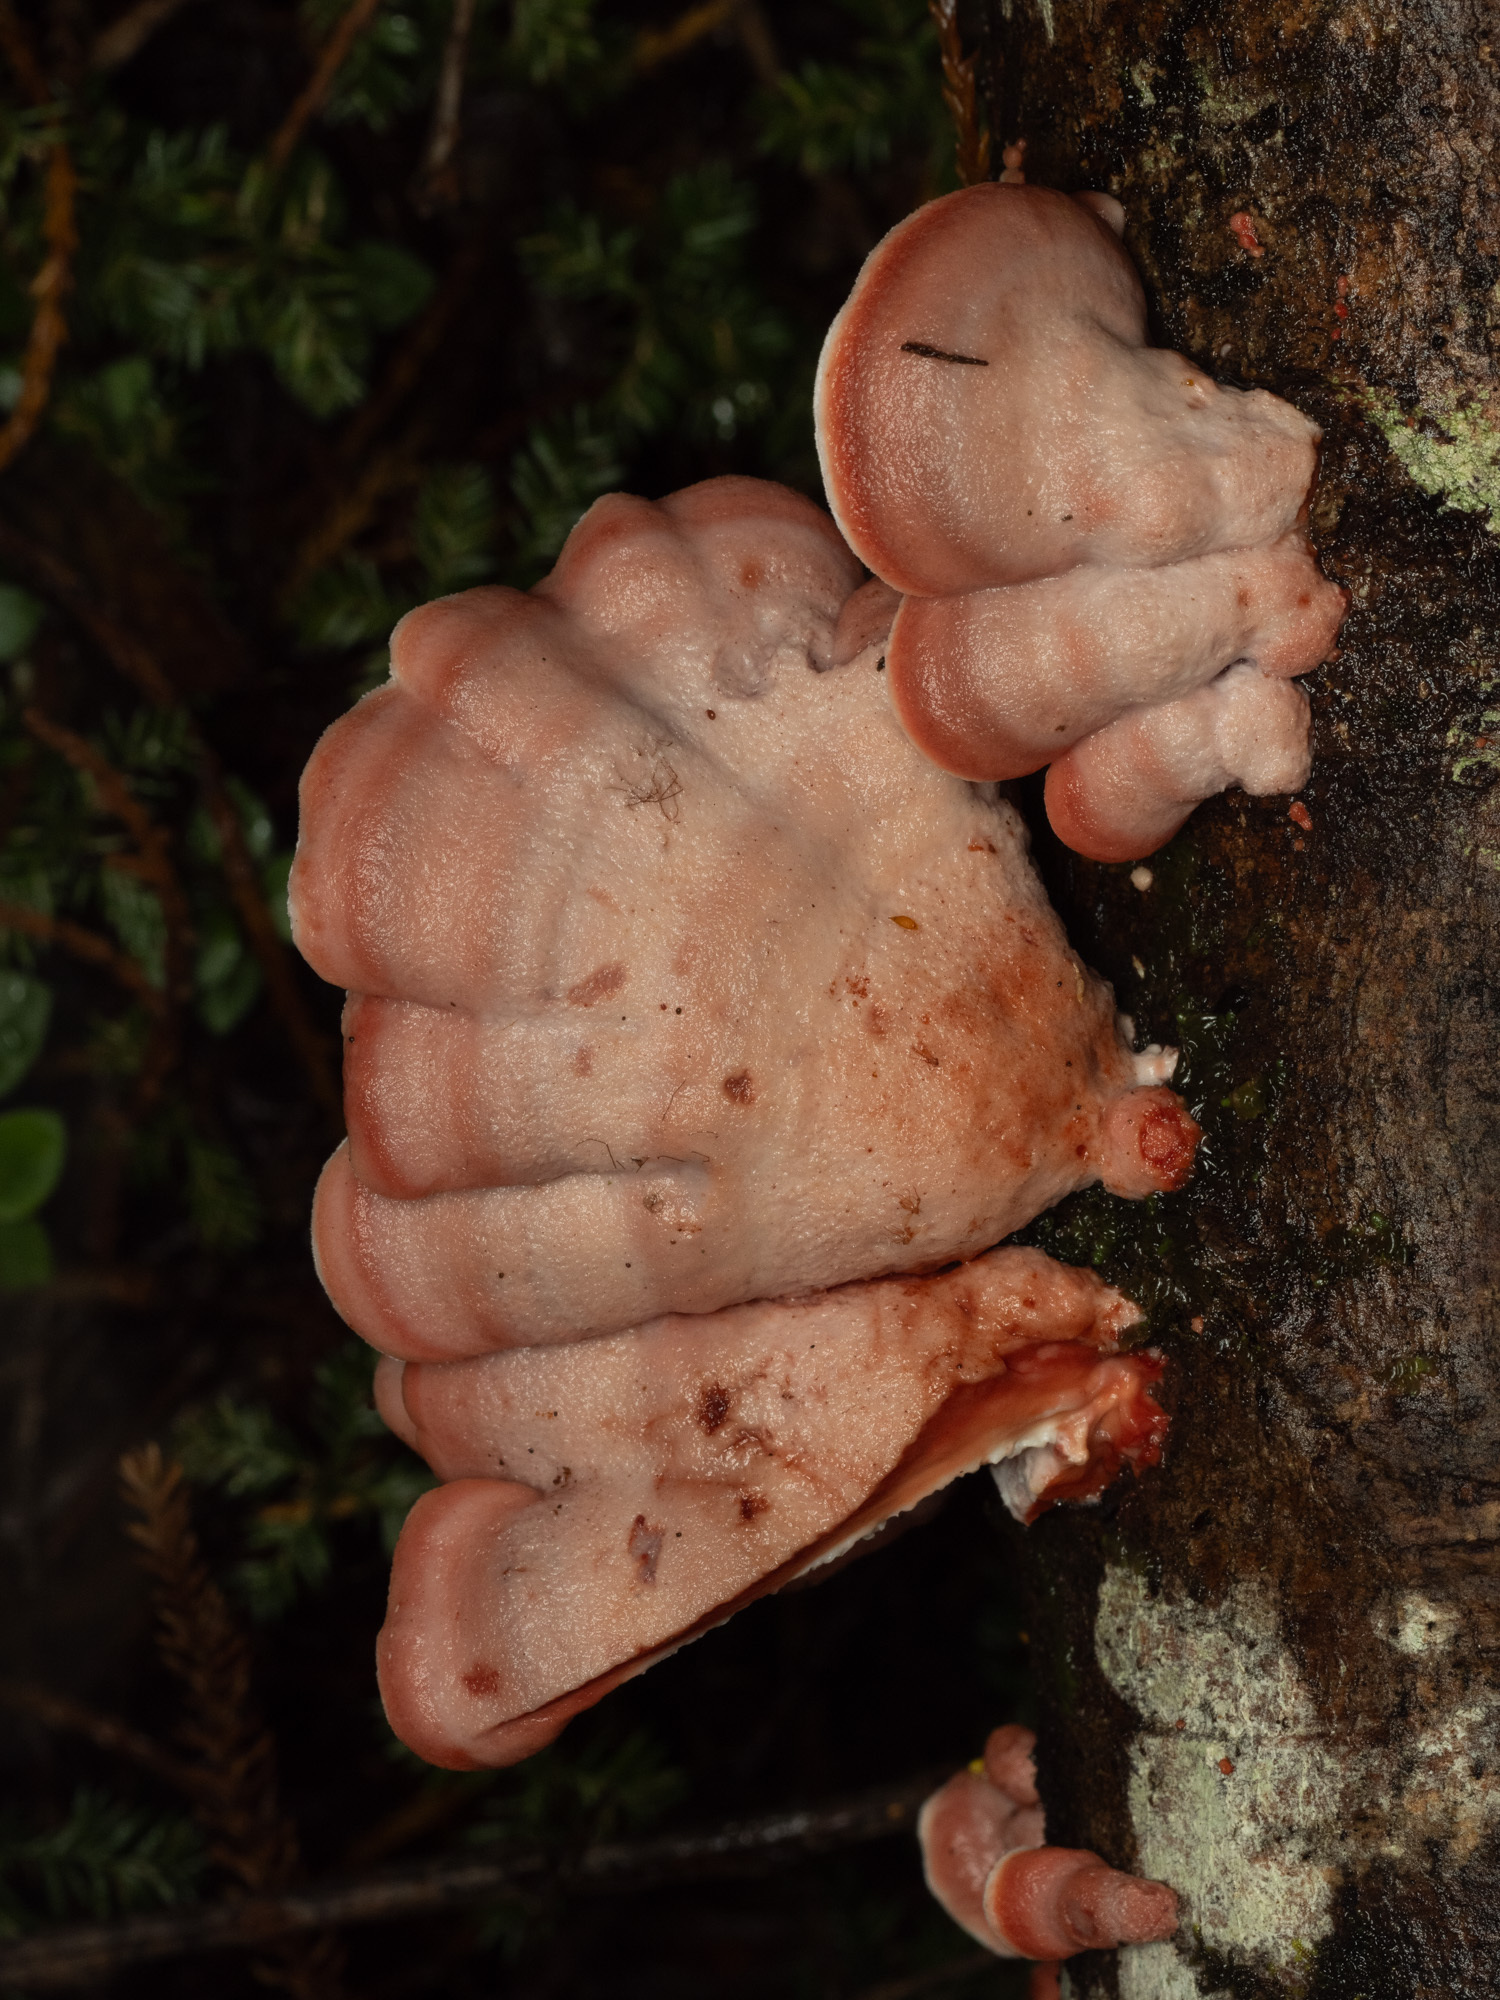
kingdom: Fungi
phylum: Basidiomycota
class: Agaricomycetes
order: Polyporales
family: Meruliaceae
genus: Phlebia
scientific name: Phlebia
